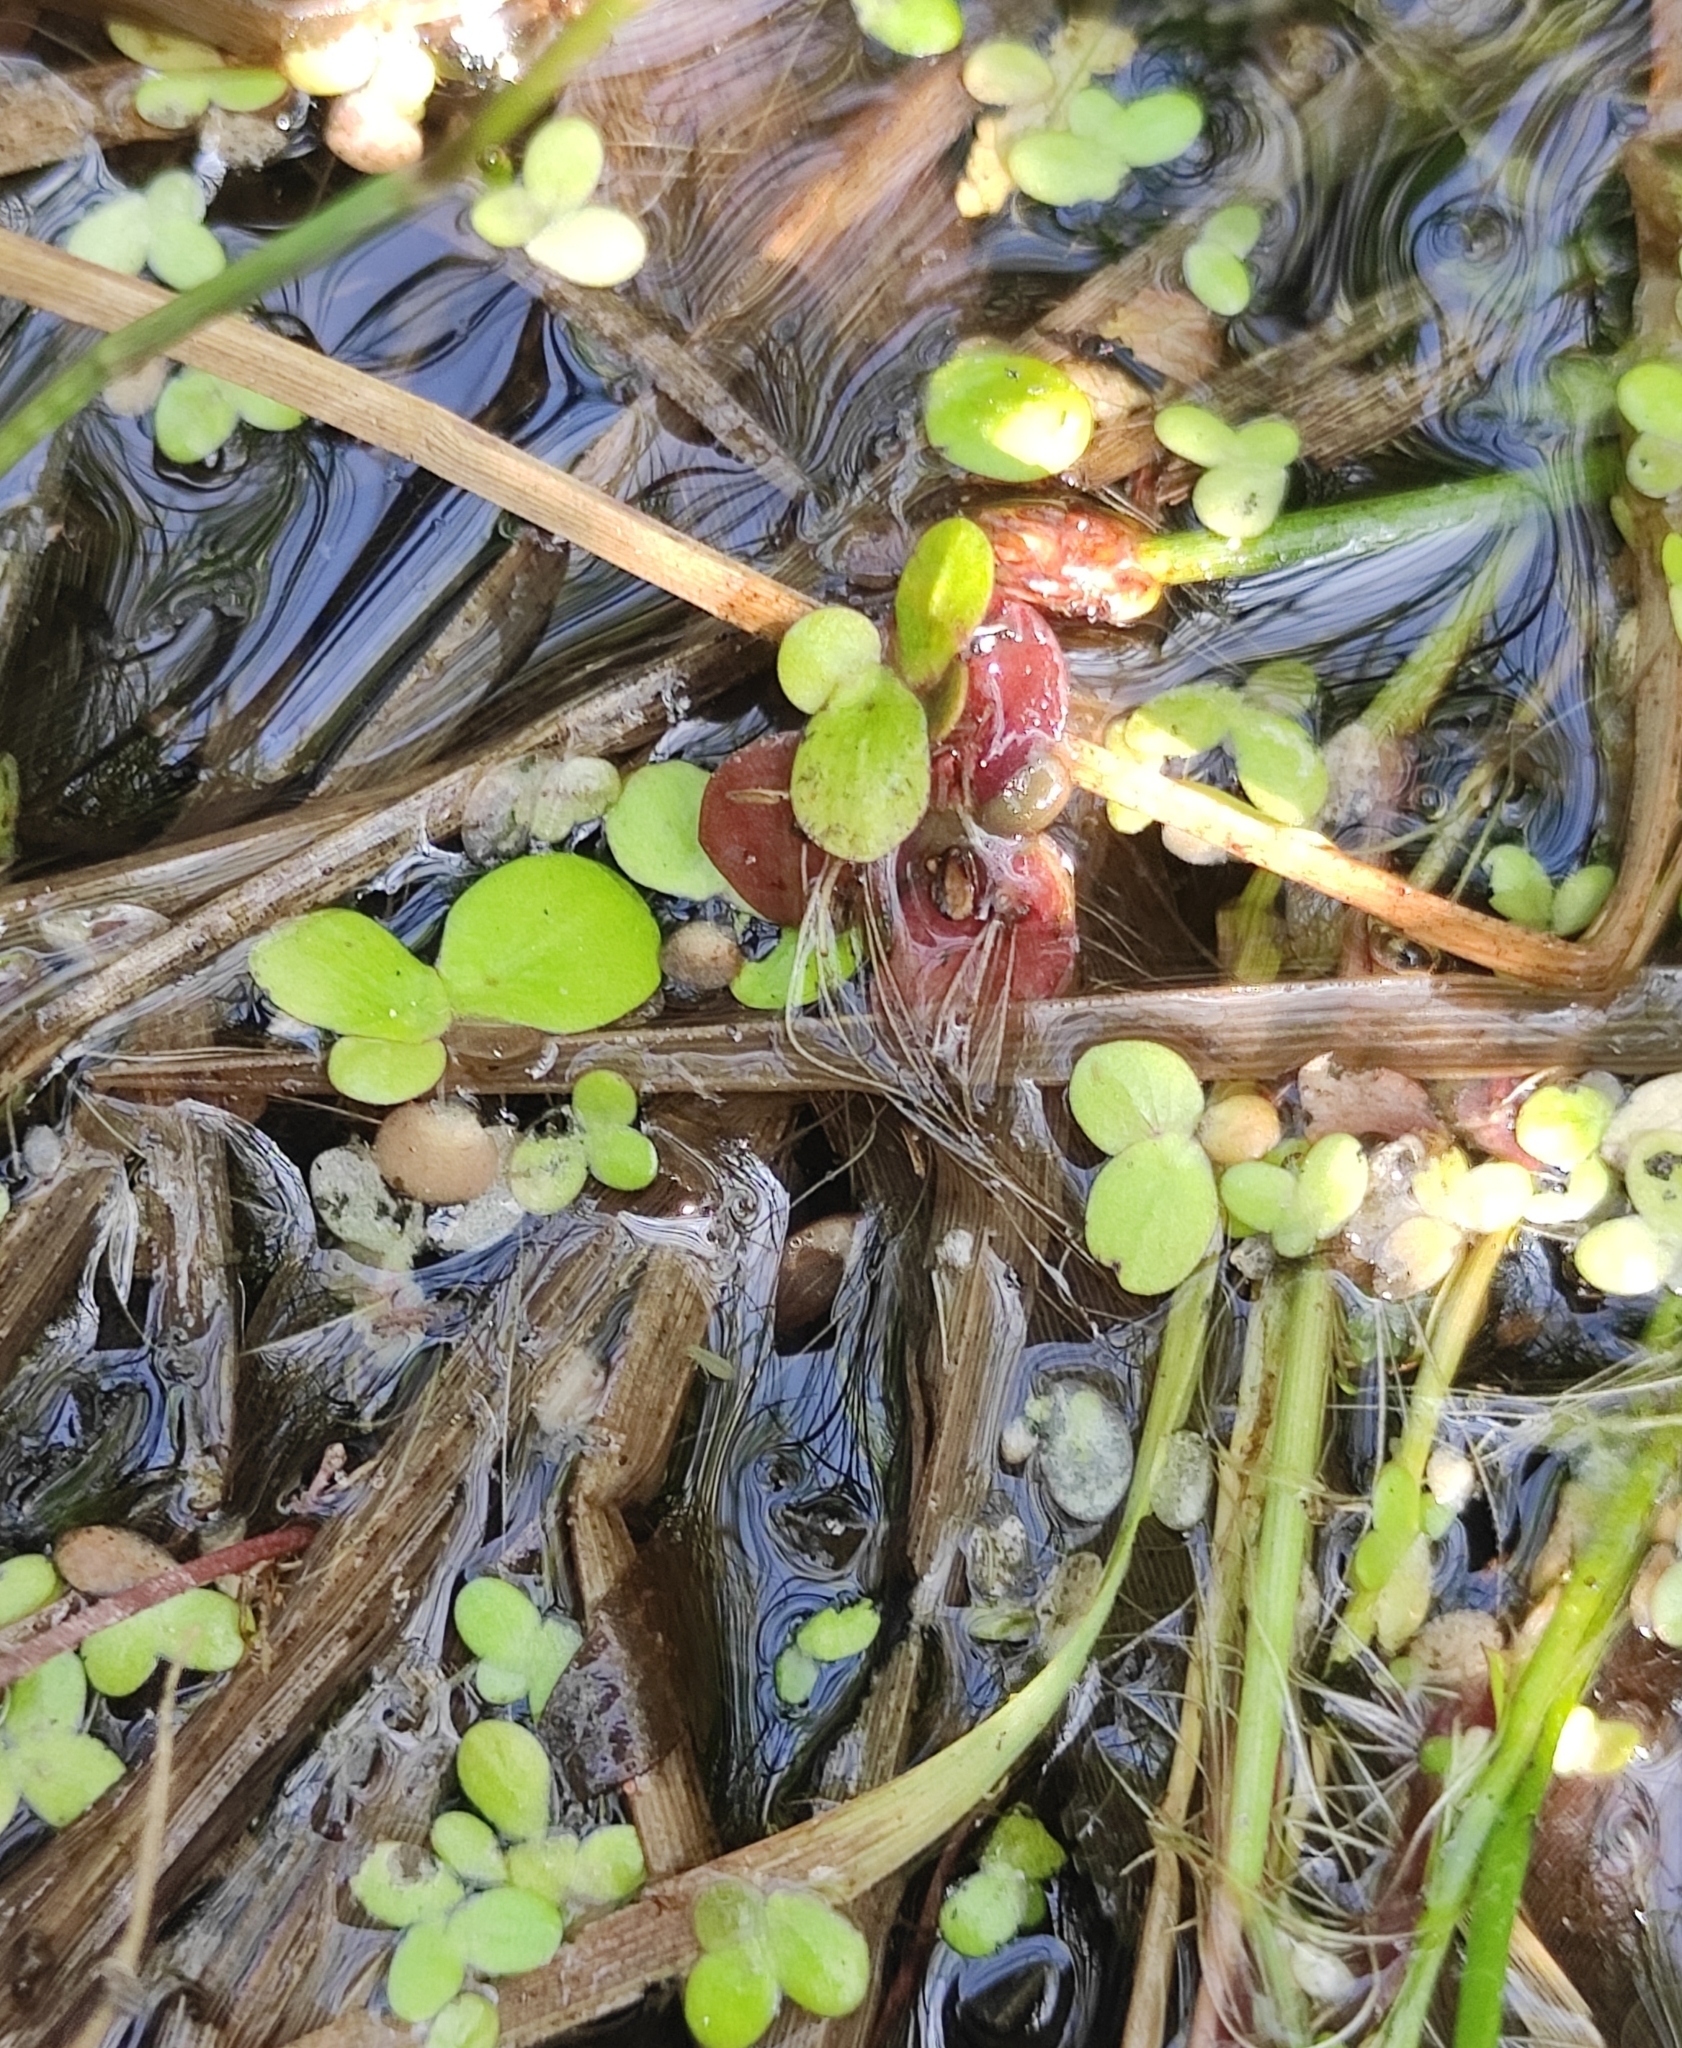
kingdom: Plantae
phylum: Tracheophyta
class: Liliopsida
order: Alismatales
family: Araceae
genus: Spirodela
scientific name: Spirodela polyrhiza
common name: Great duckweed
